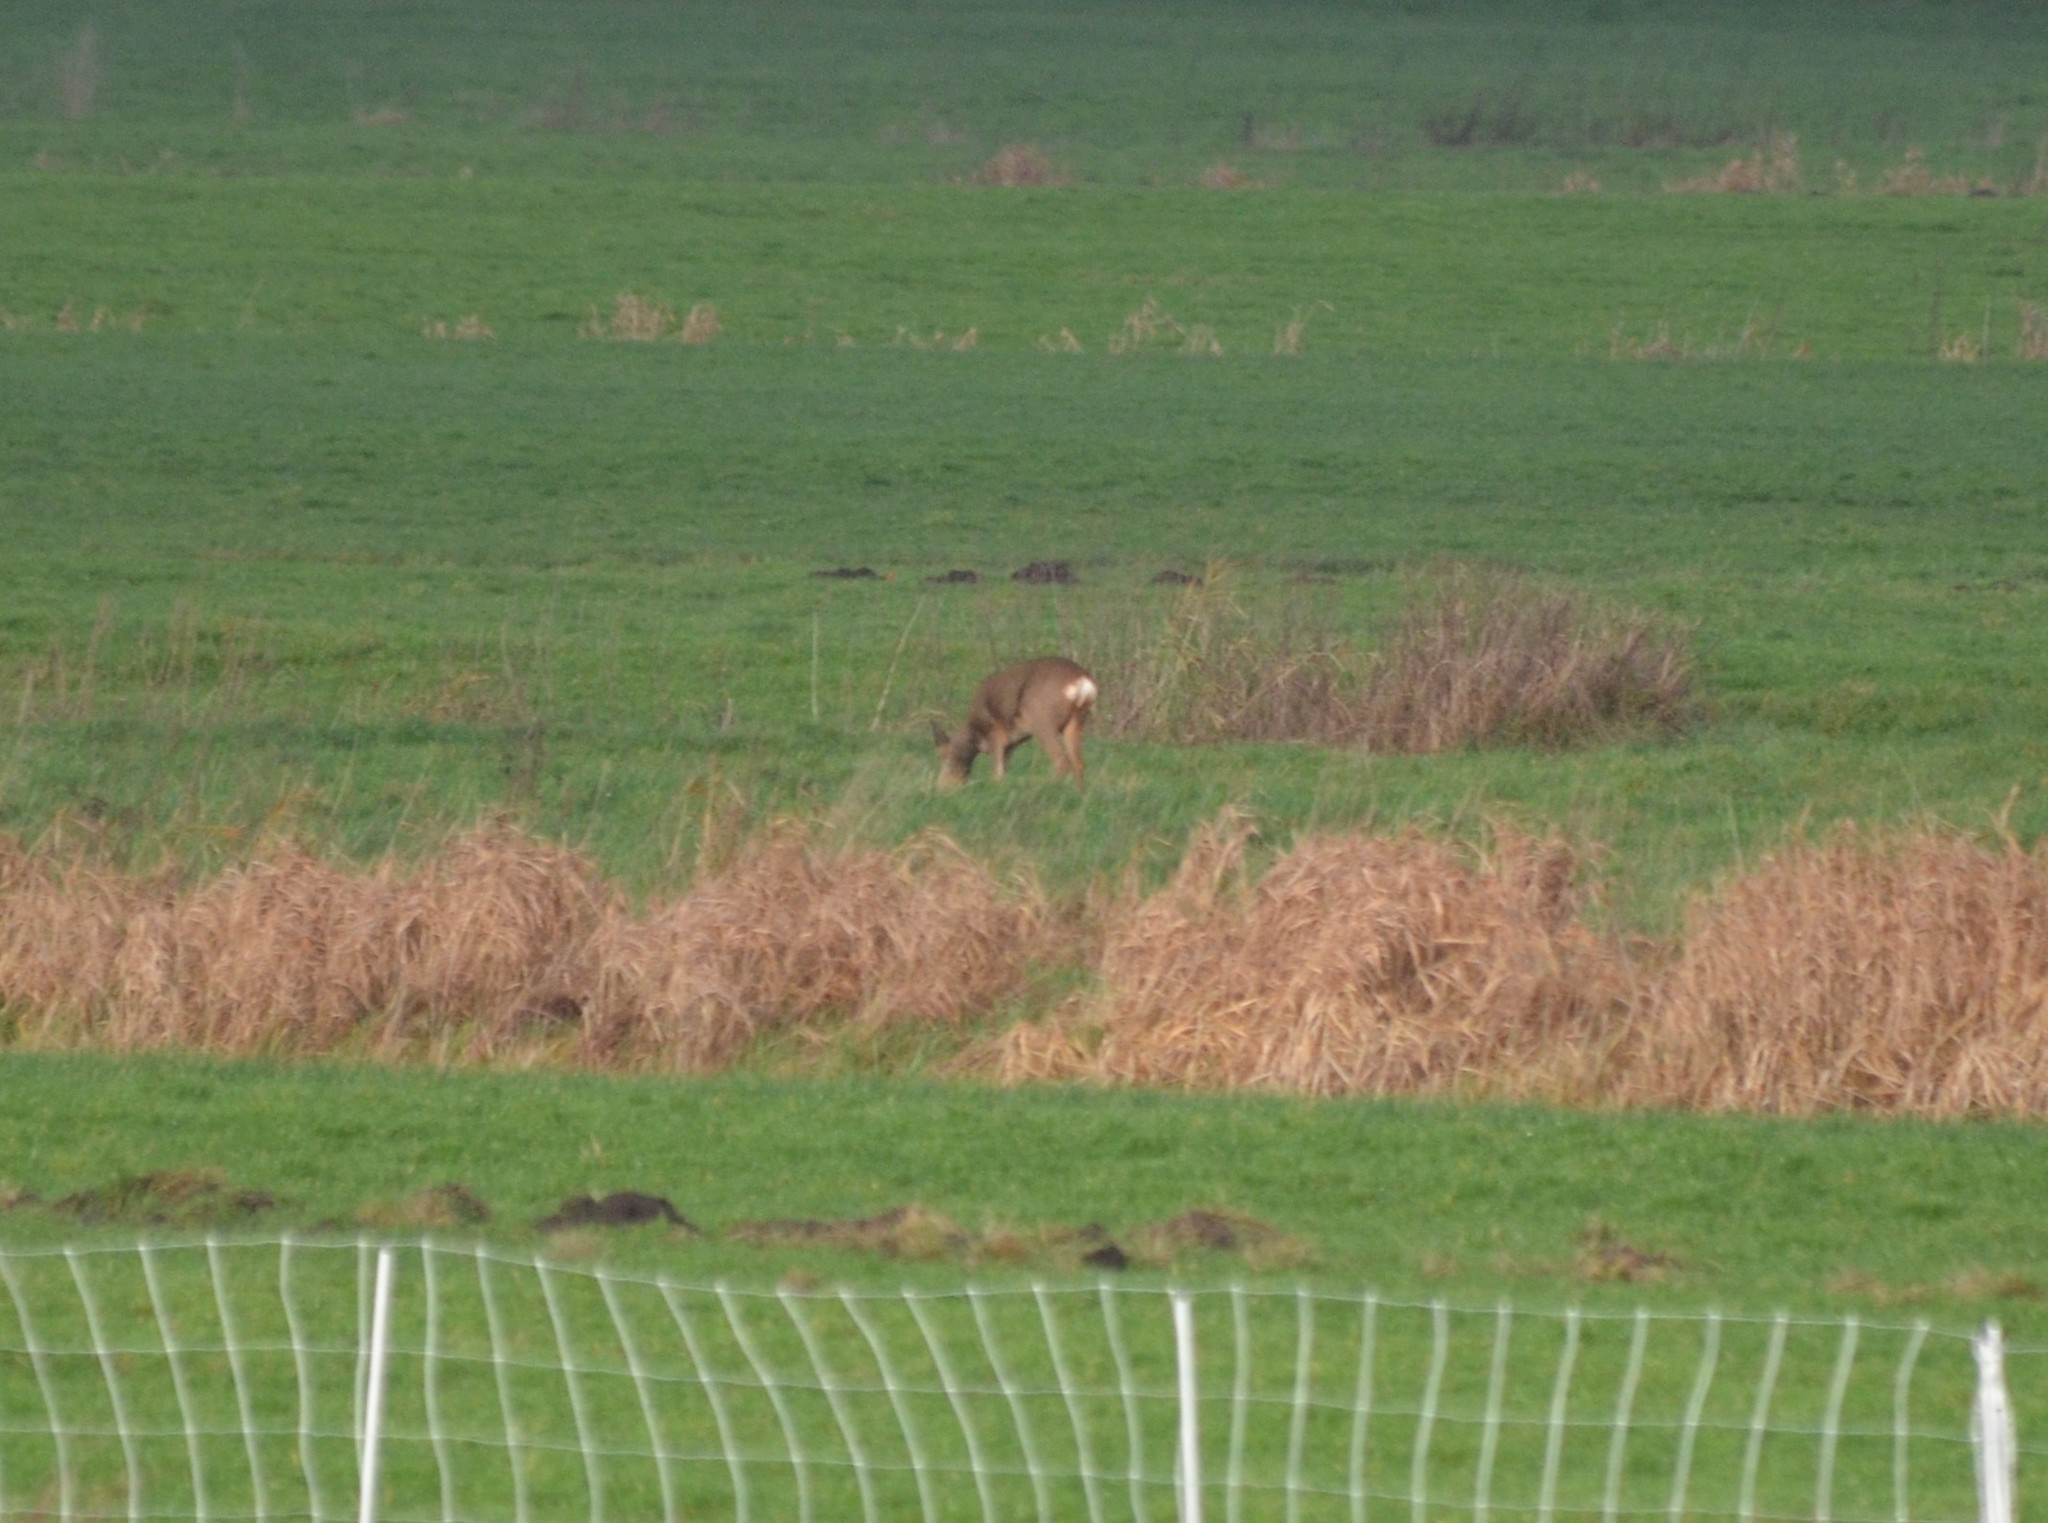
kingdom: Animalia
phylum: Chordata
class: Mammalia
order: Artiodactyla
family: Cervidae
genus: Capreolus
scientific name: Capreolus capreolus
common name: Western roe deer
